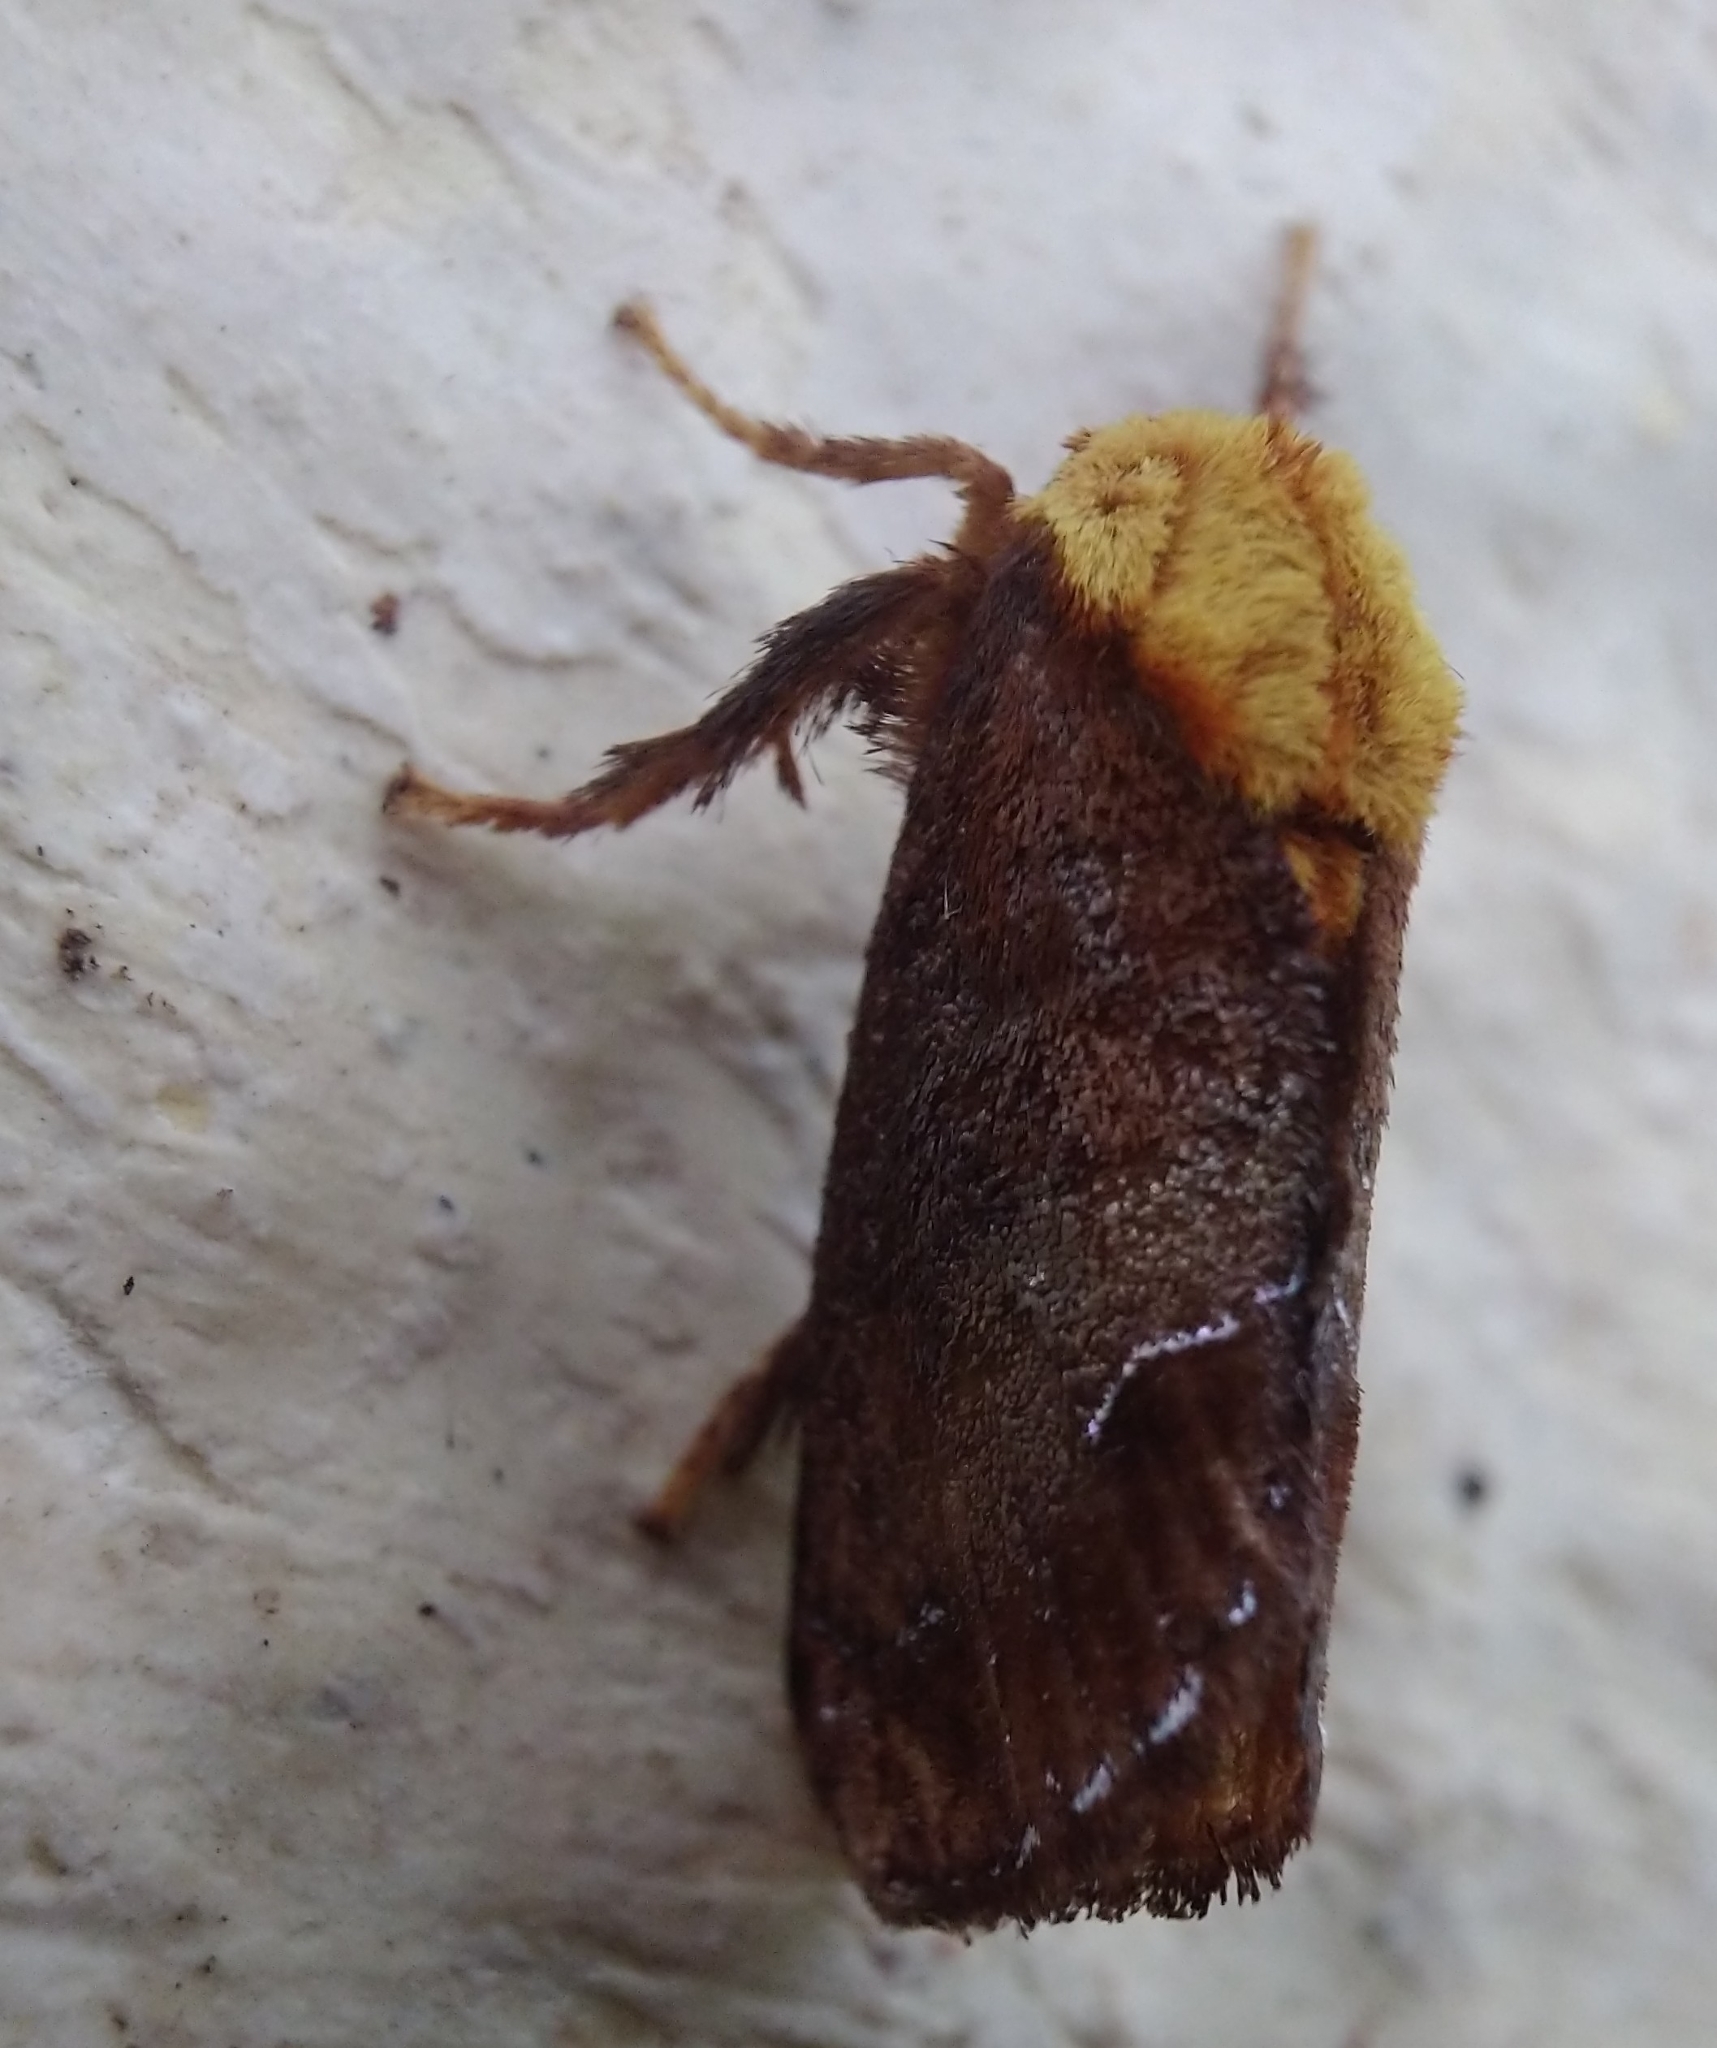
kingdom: Animalia
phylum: Arthropoda
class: Insecta
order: Lepidoptera
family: Limacodidae
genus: Miresa
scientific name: Miresa argentifera
